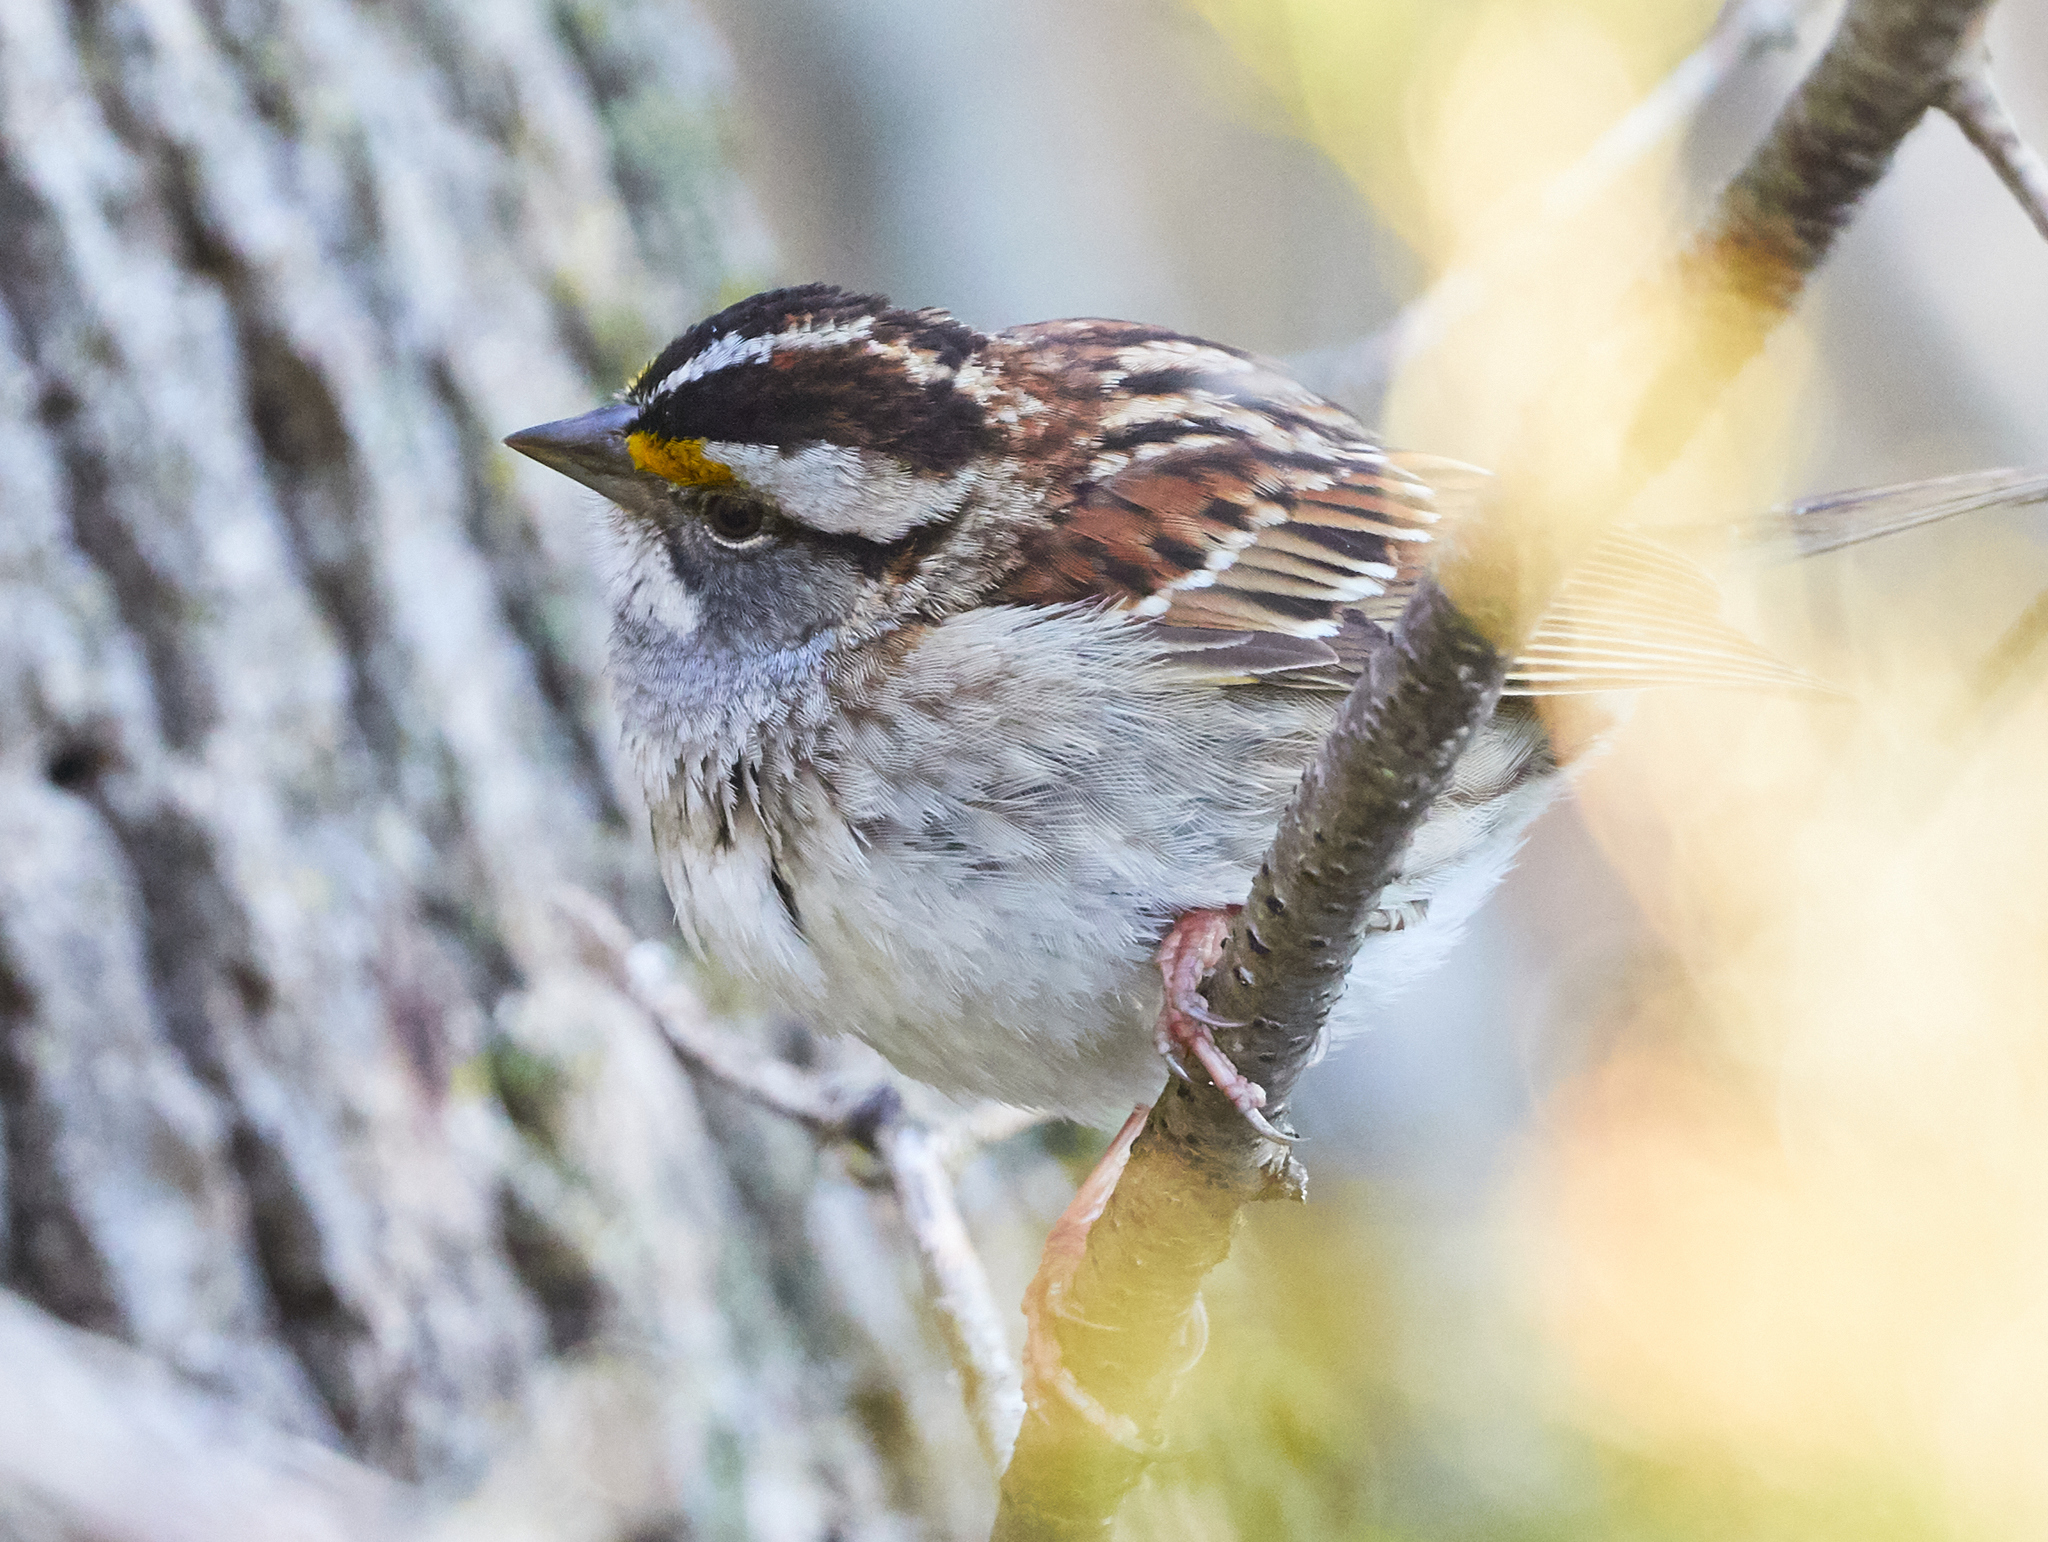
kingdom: Animalia
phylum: Chordata
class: Aves
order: Passeriformes
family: Passerellidae
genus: Zonotrichia
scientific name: Zonotrichia albicollis
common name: White-throated sparrow
